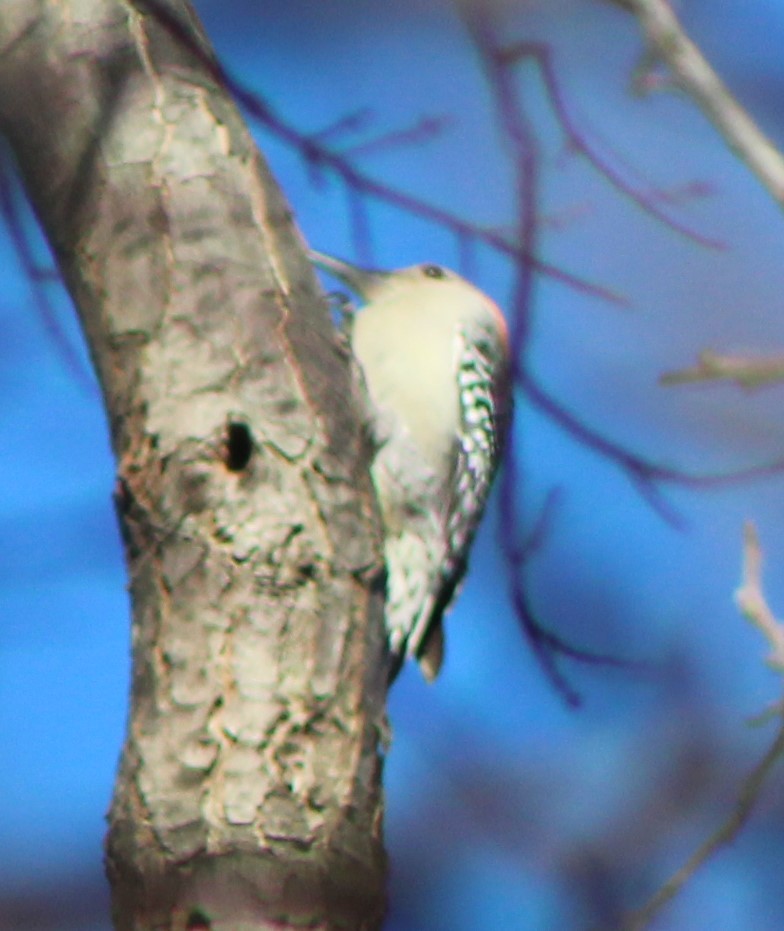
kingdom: Animalia
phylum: Chordata
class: Aves
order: Piciformes
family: Picidae
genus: Melanerpes
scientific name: Melanerpes carolinus
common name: Red-bellied woodpecker
